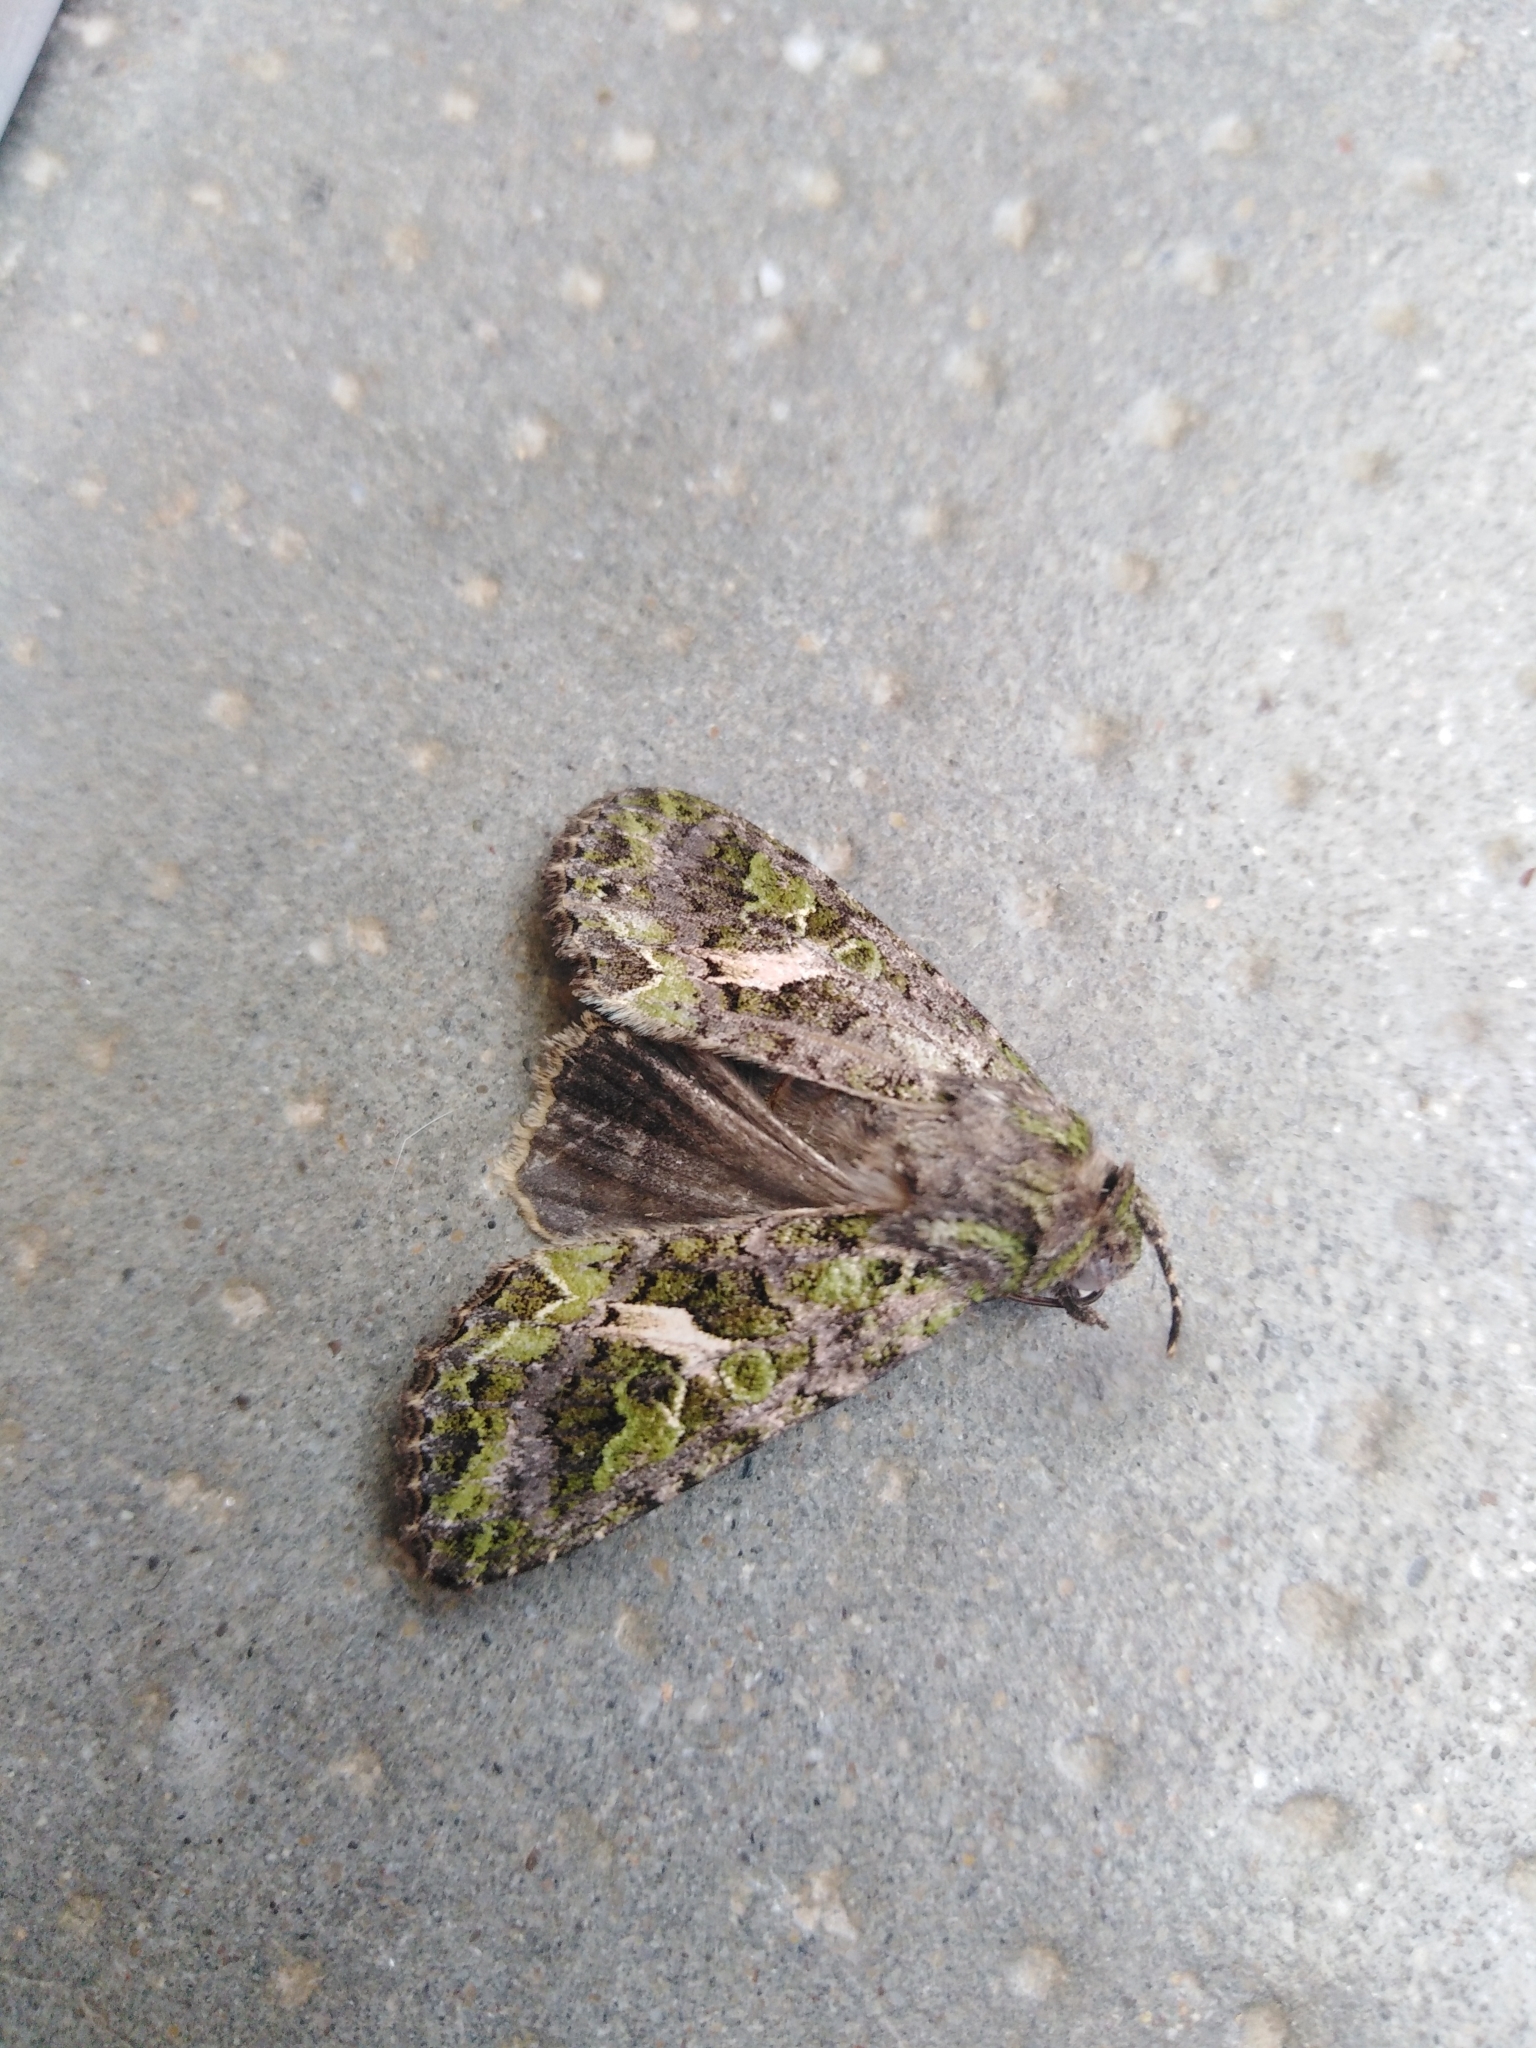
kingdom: Animalia
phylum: Arthropoda
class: Insecta
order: Lepidoptera
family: Noctuidae
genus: Trachea
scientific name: Trachea atriplicis
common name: Orache moth
